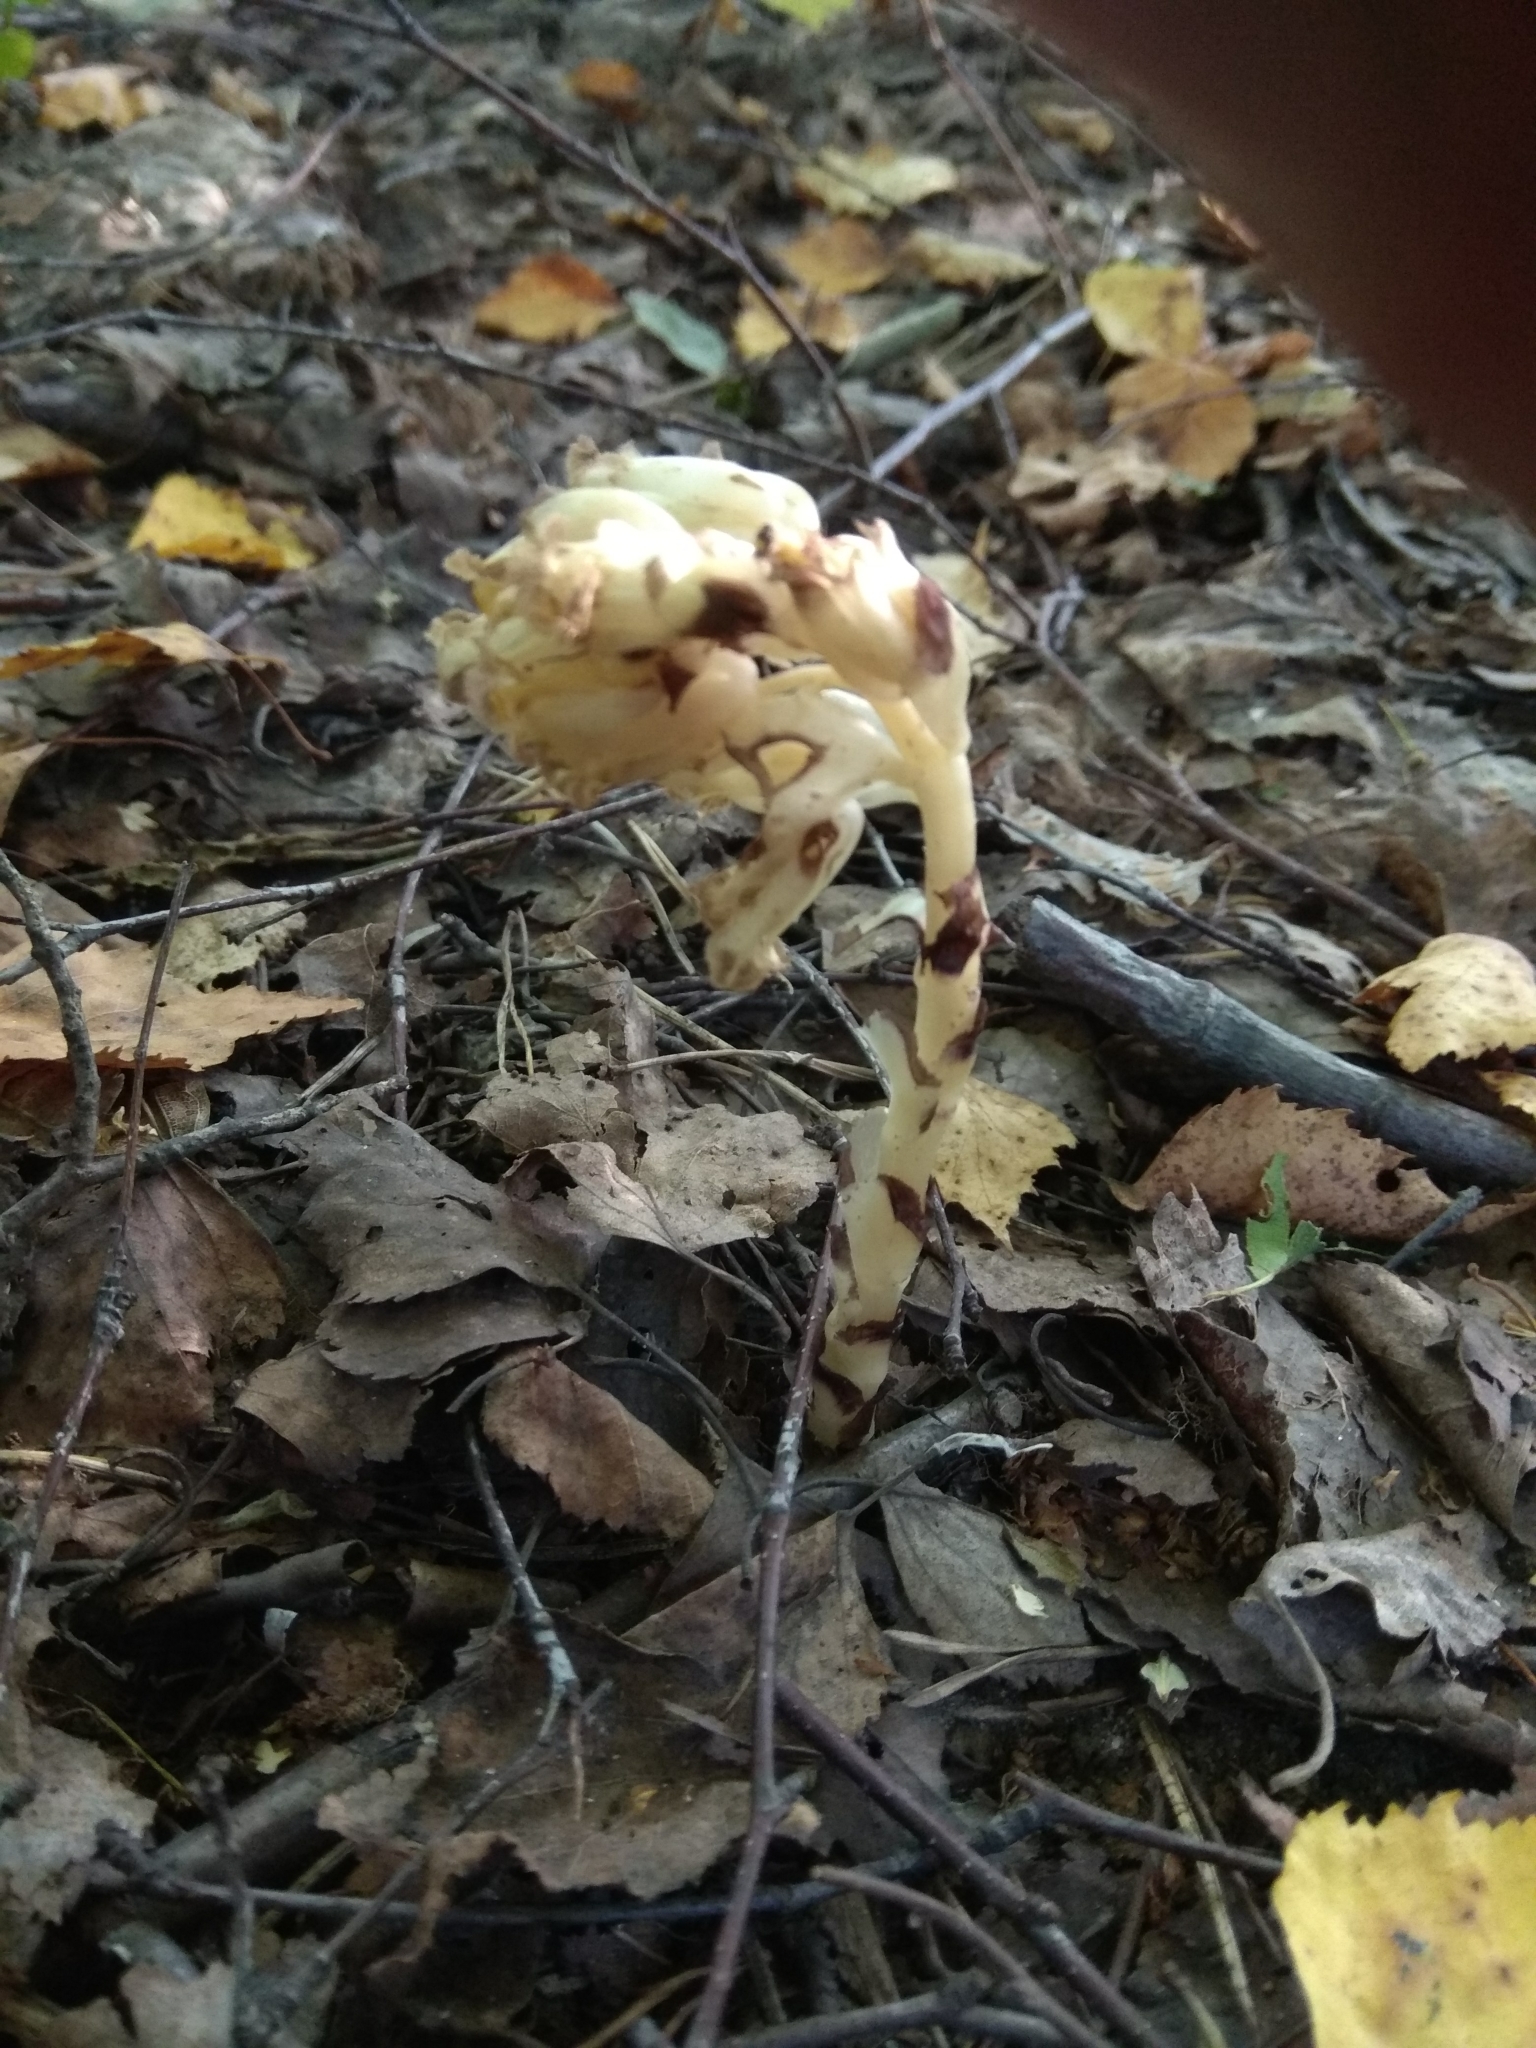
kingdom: Plantae
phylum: Tracheophyta
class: Magnoliopsida
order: Ericales
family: Ericaceae
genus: Hypopitys
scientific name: Hypopitys monotropa
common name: Yellow bird's-nest
